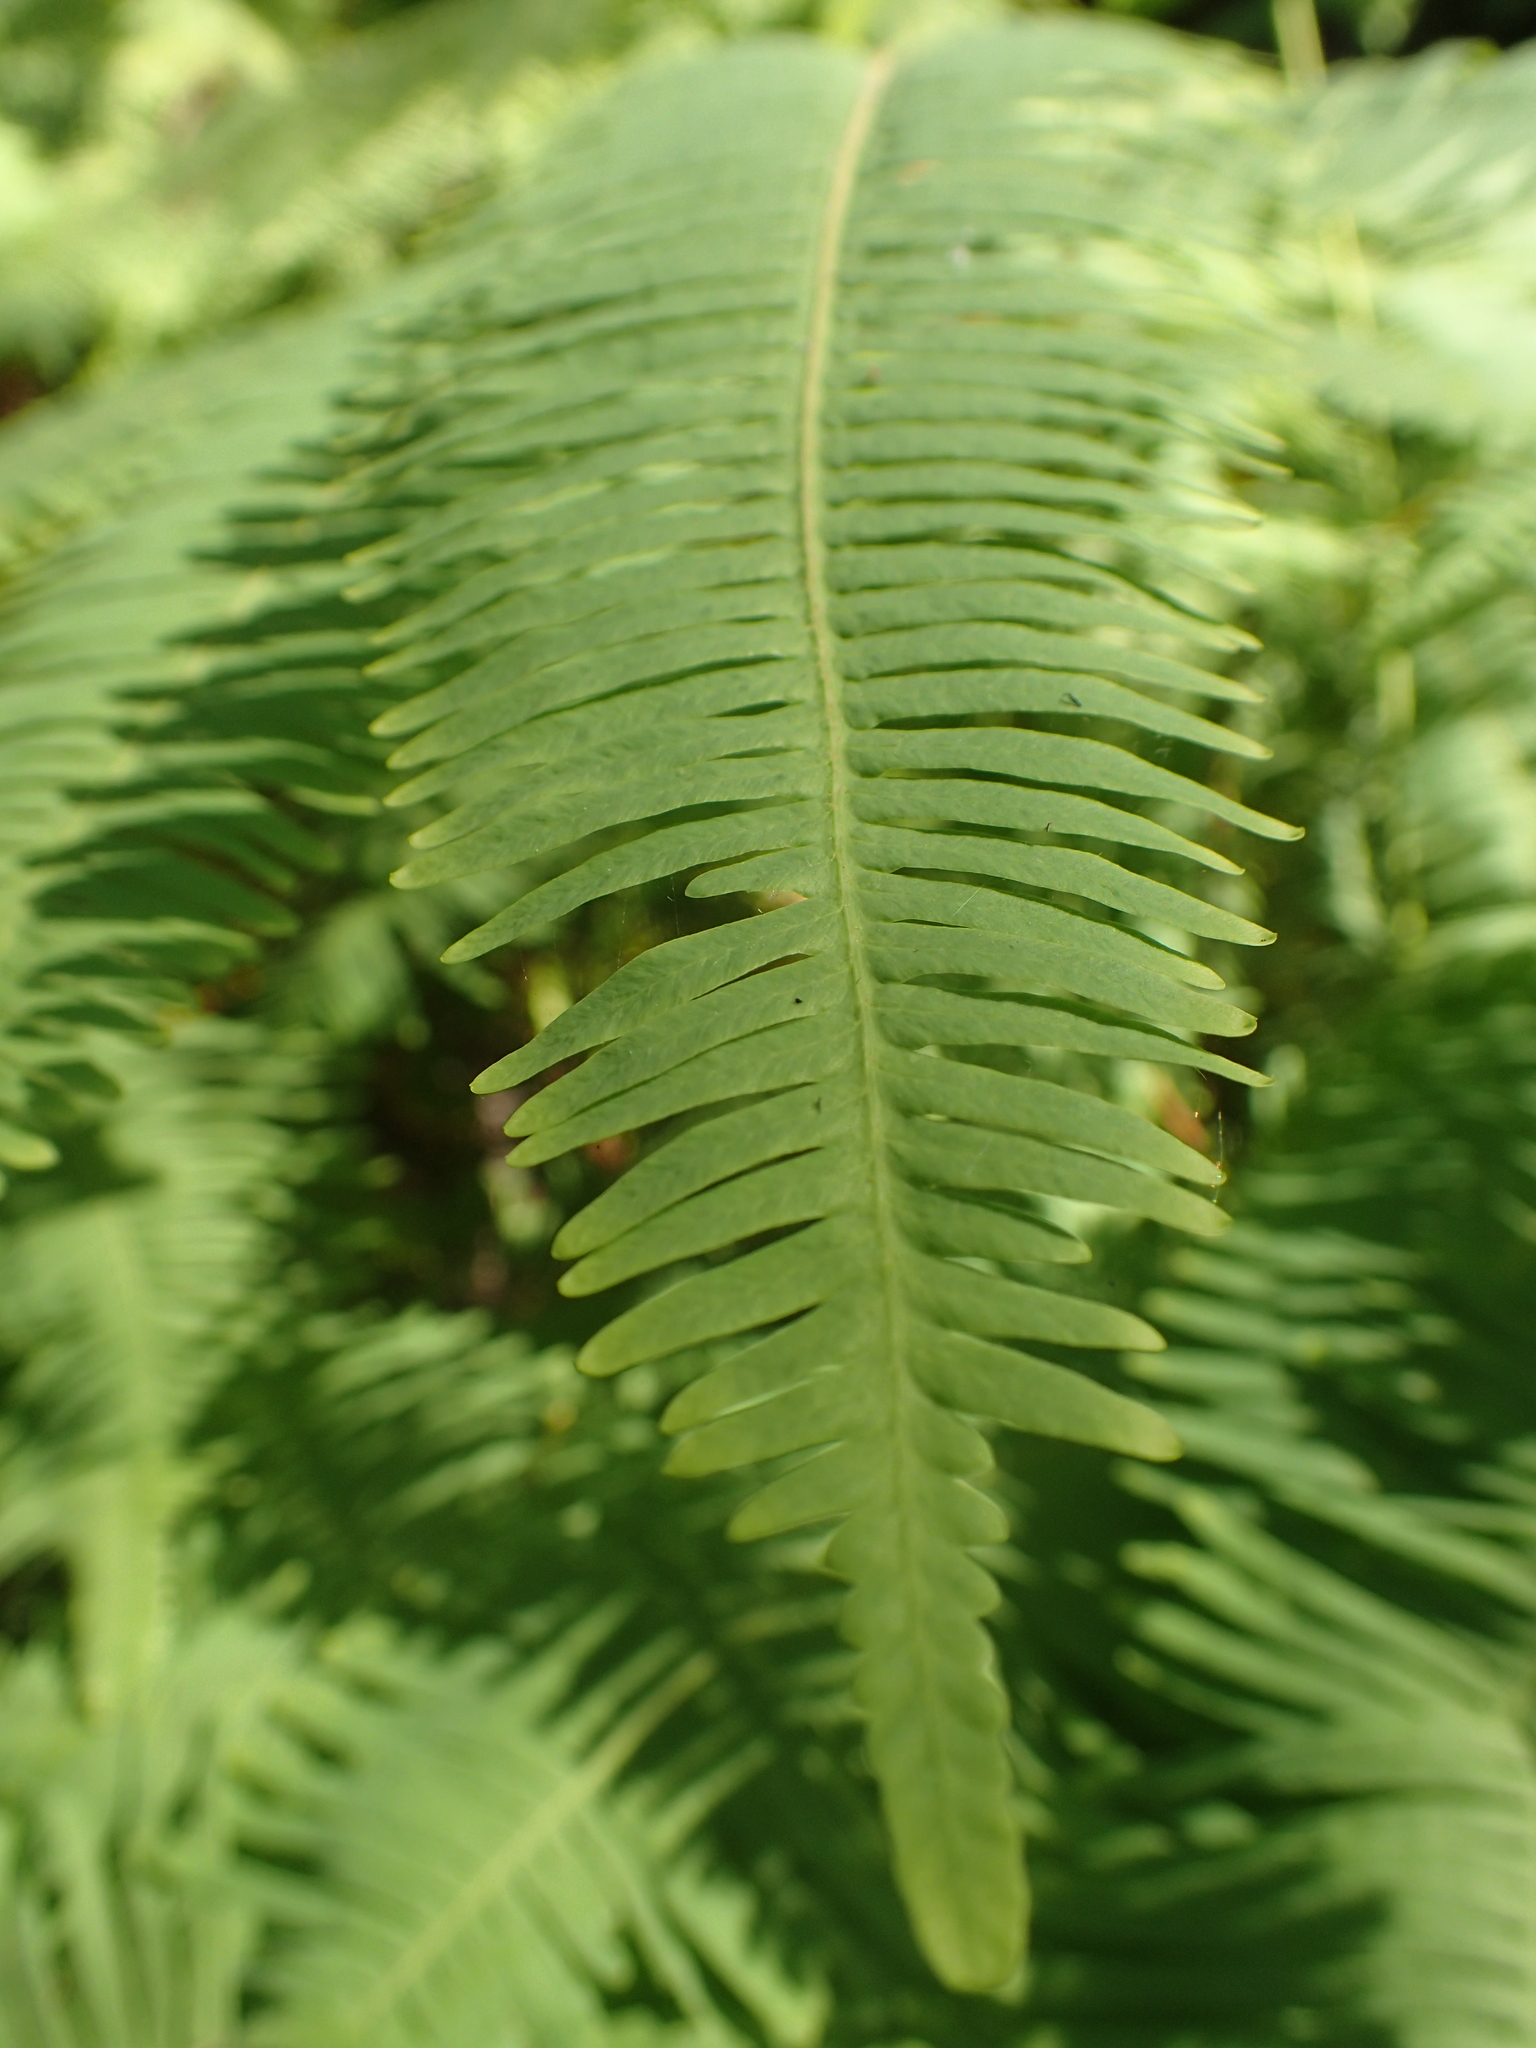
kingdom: Plantae
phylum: Tracheophyta
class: Polypodiopsida
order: Gleicheniales
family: Gleicheniaceae
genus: Dicranopteris
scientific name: Dicranopteris linearis
